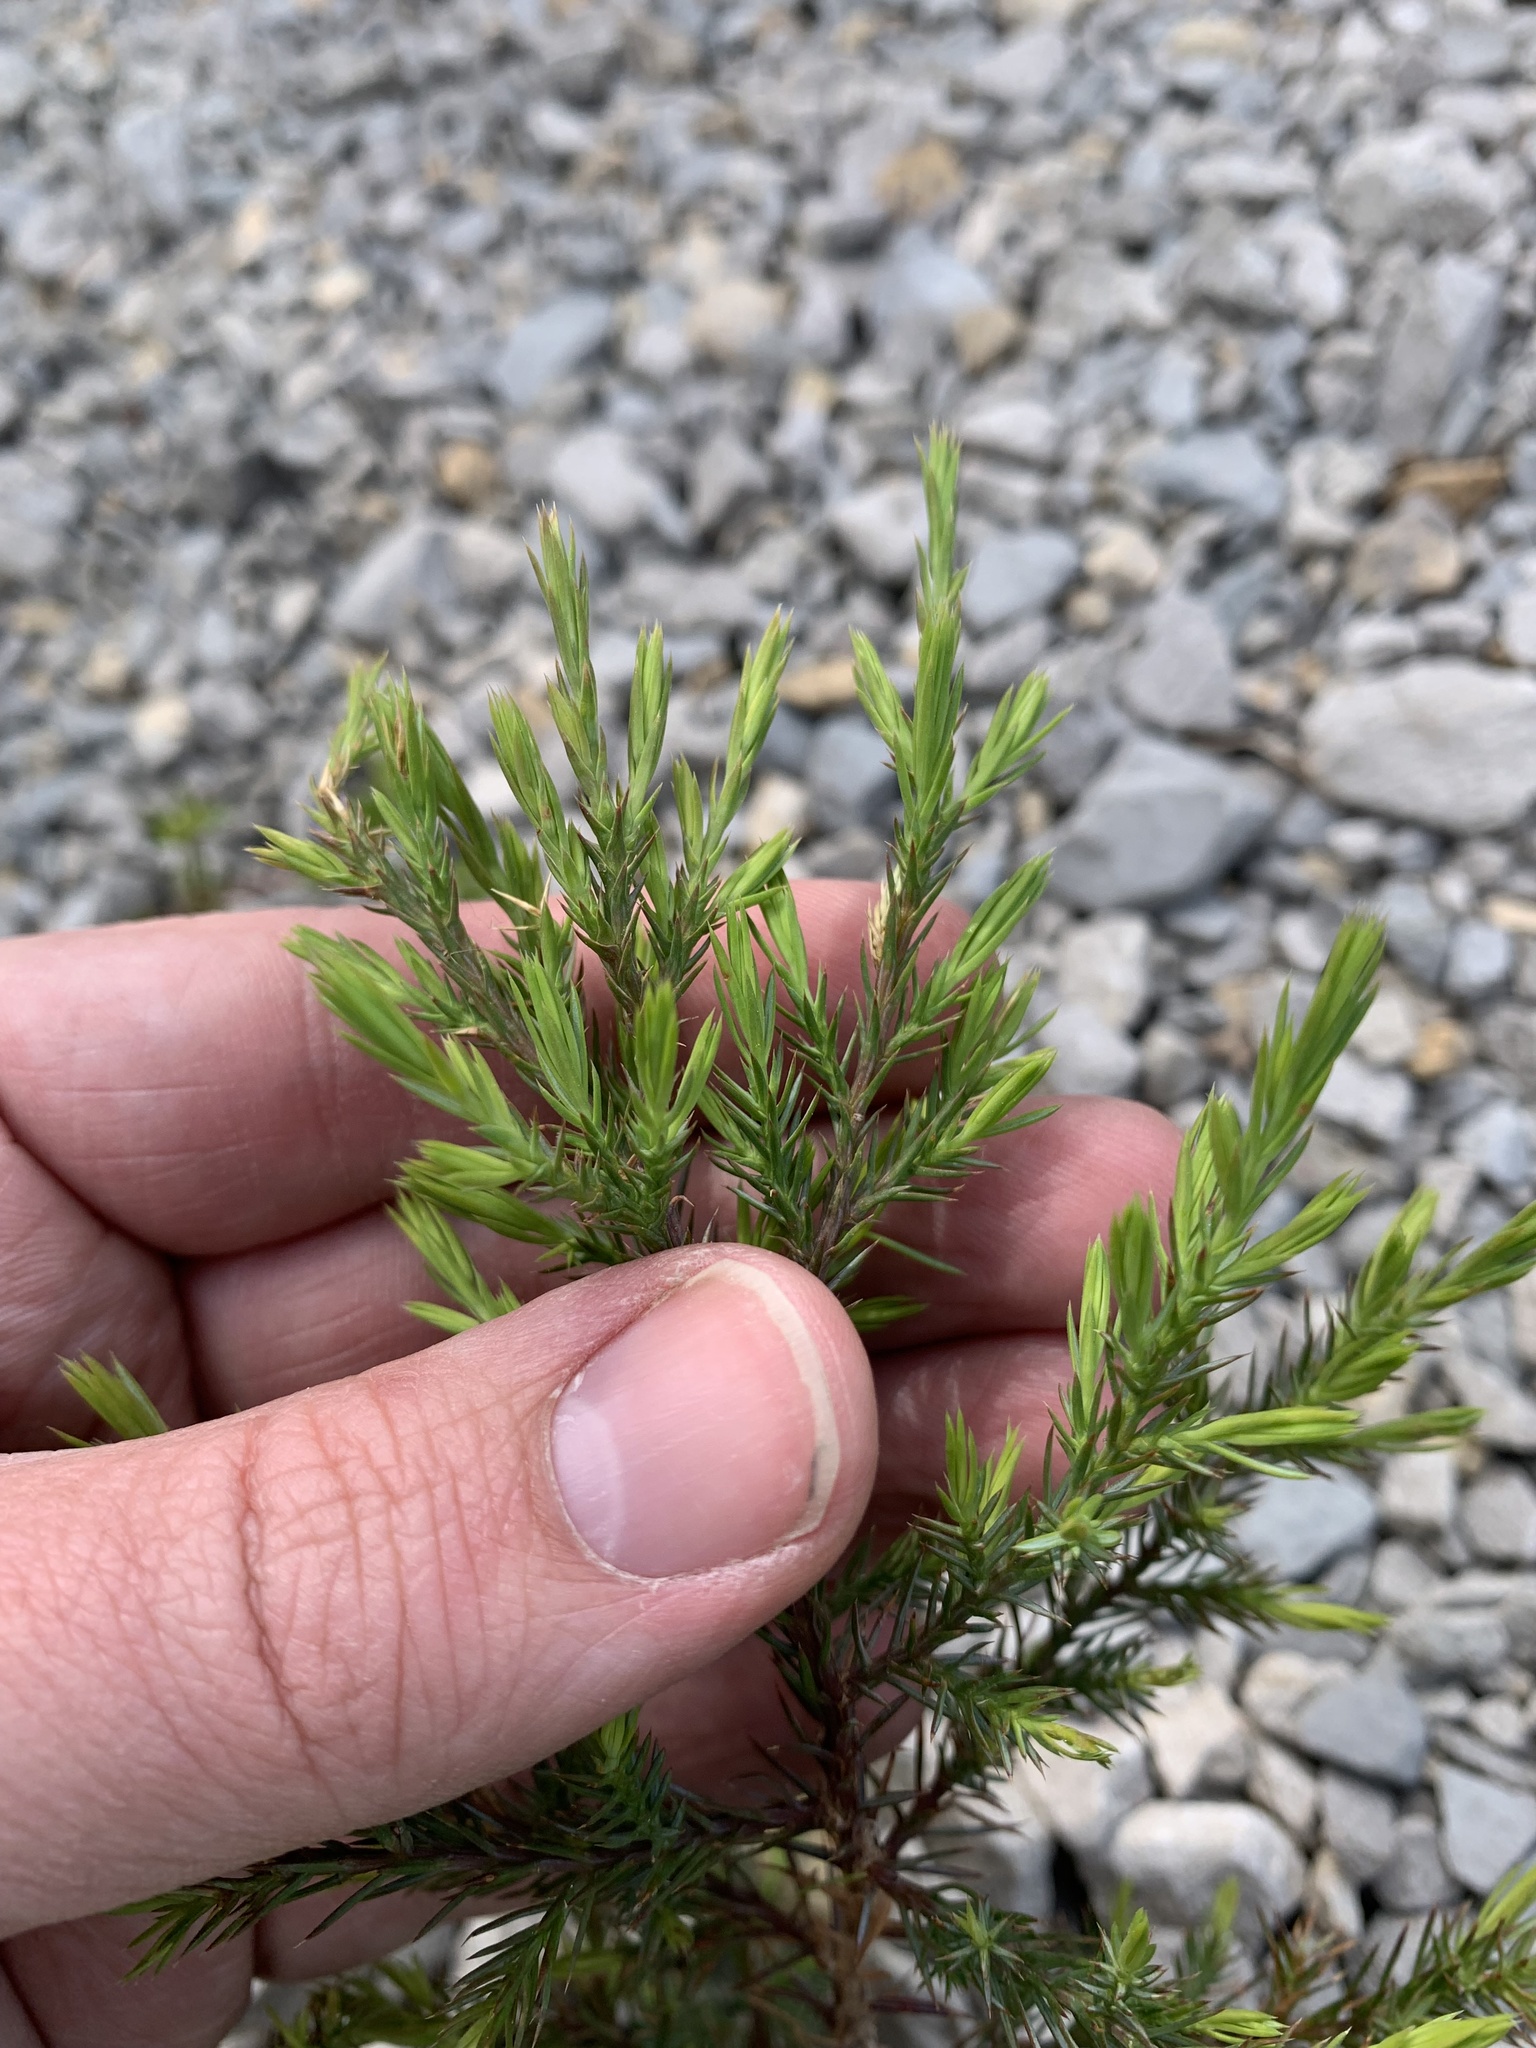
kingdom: Plantae
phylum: Tracheophyta
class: Pinopsida
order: Pinales
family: Cupressaceae
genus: Juniperus
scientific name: Juniperus virginiana
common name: Red juniper
